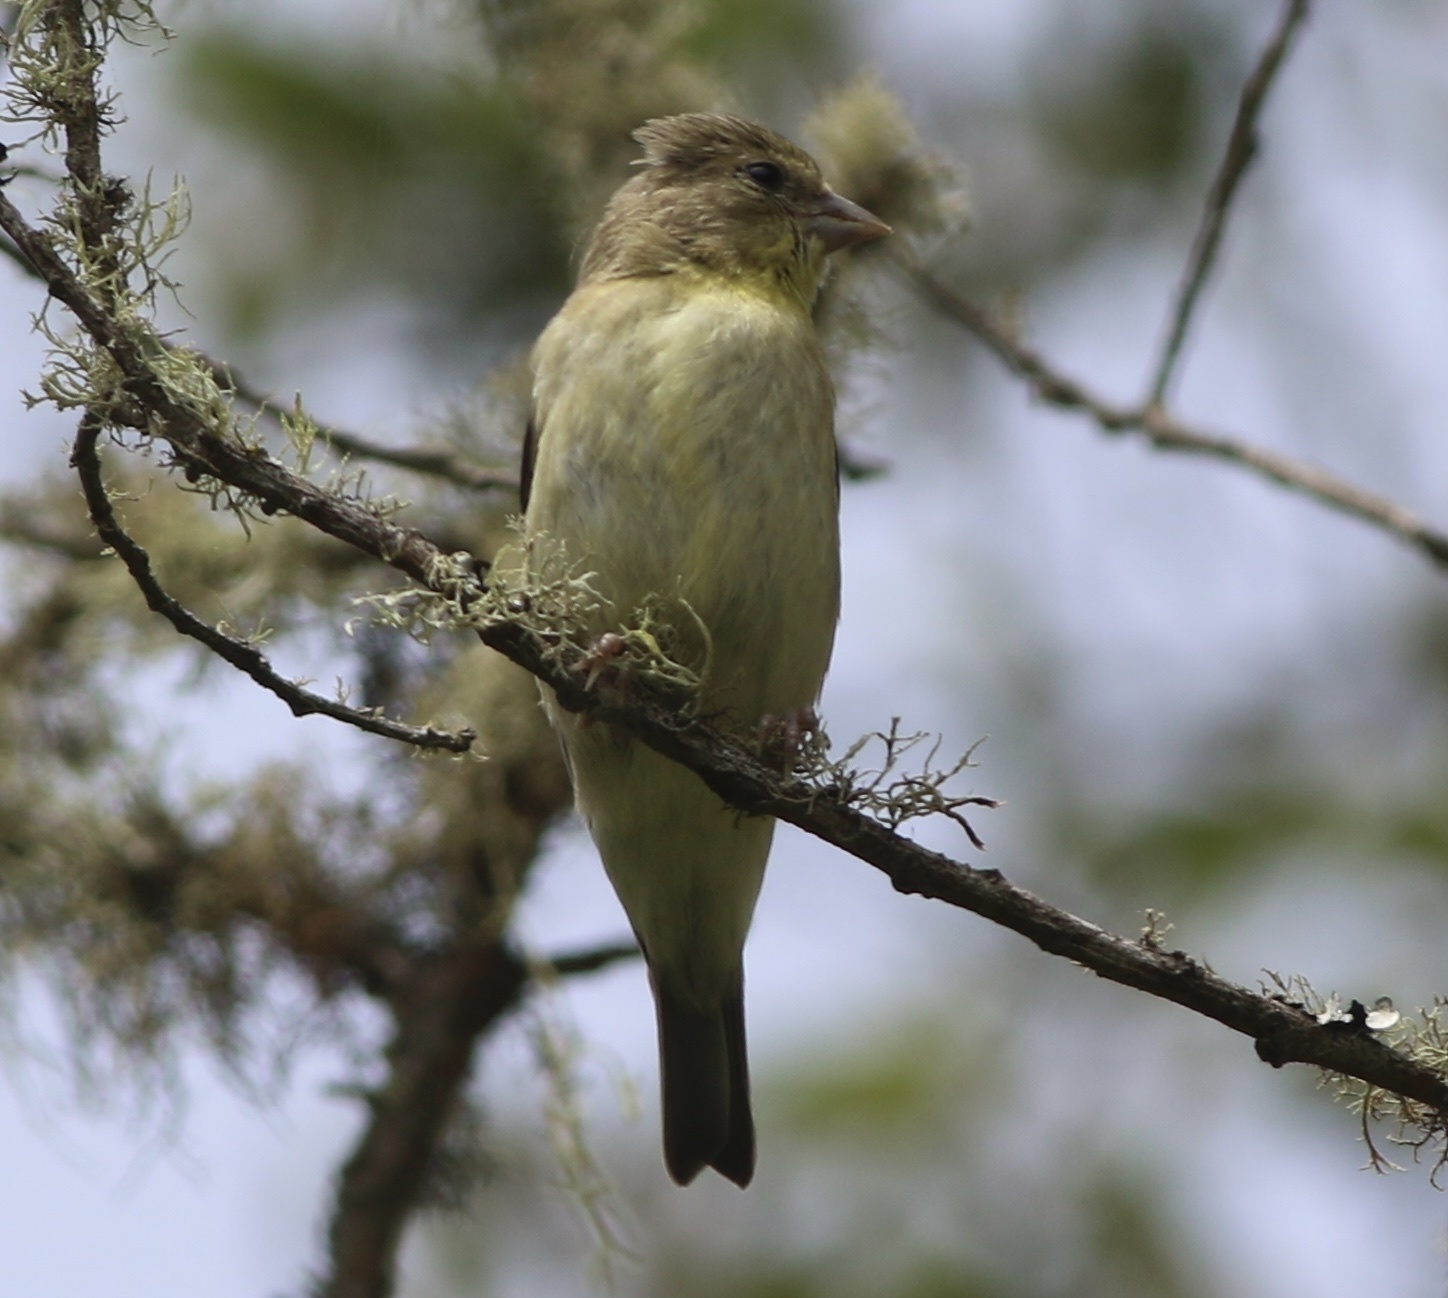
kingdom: Animalia
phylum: Chordata
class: Aves
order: Passeriformes
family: Fringillidae
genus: Spinus
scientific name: Spinus psaltria
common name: Lesser goldfinch
